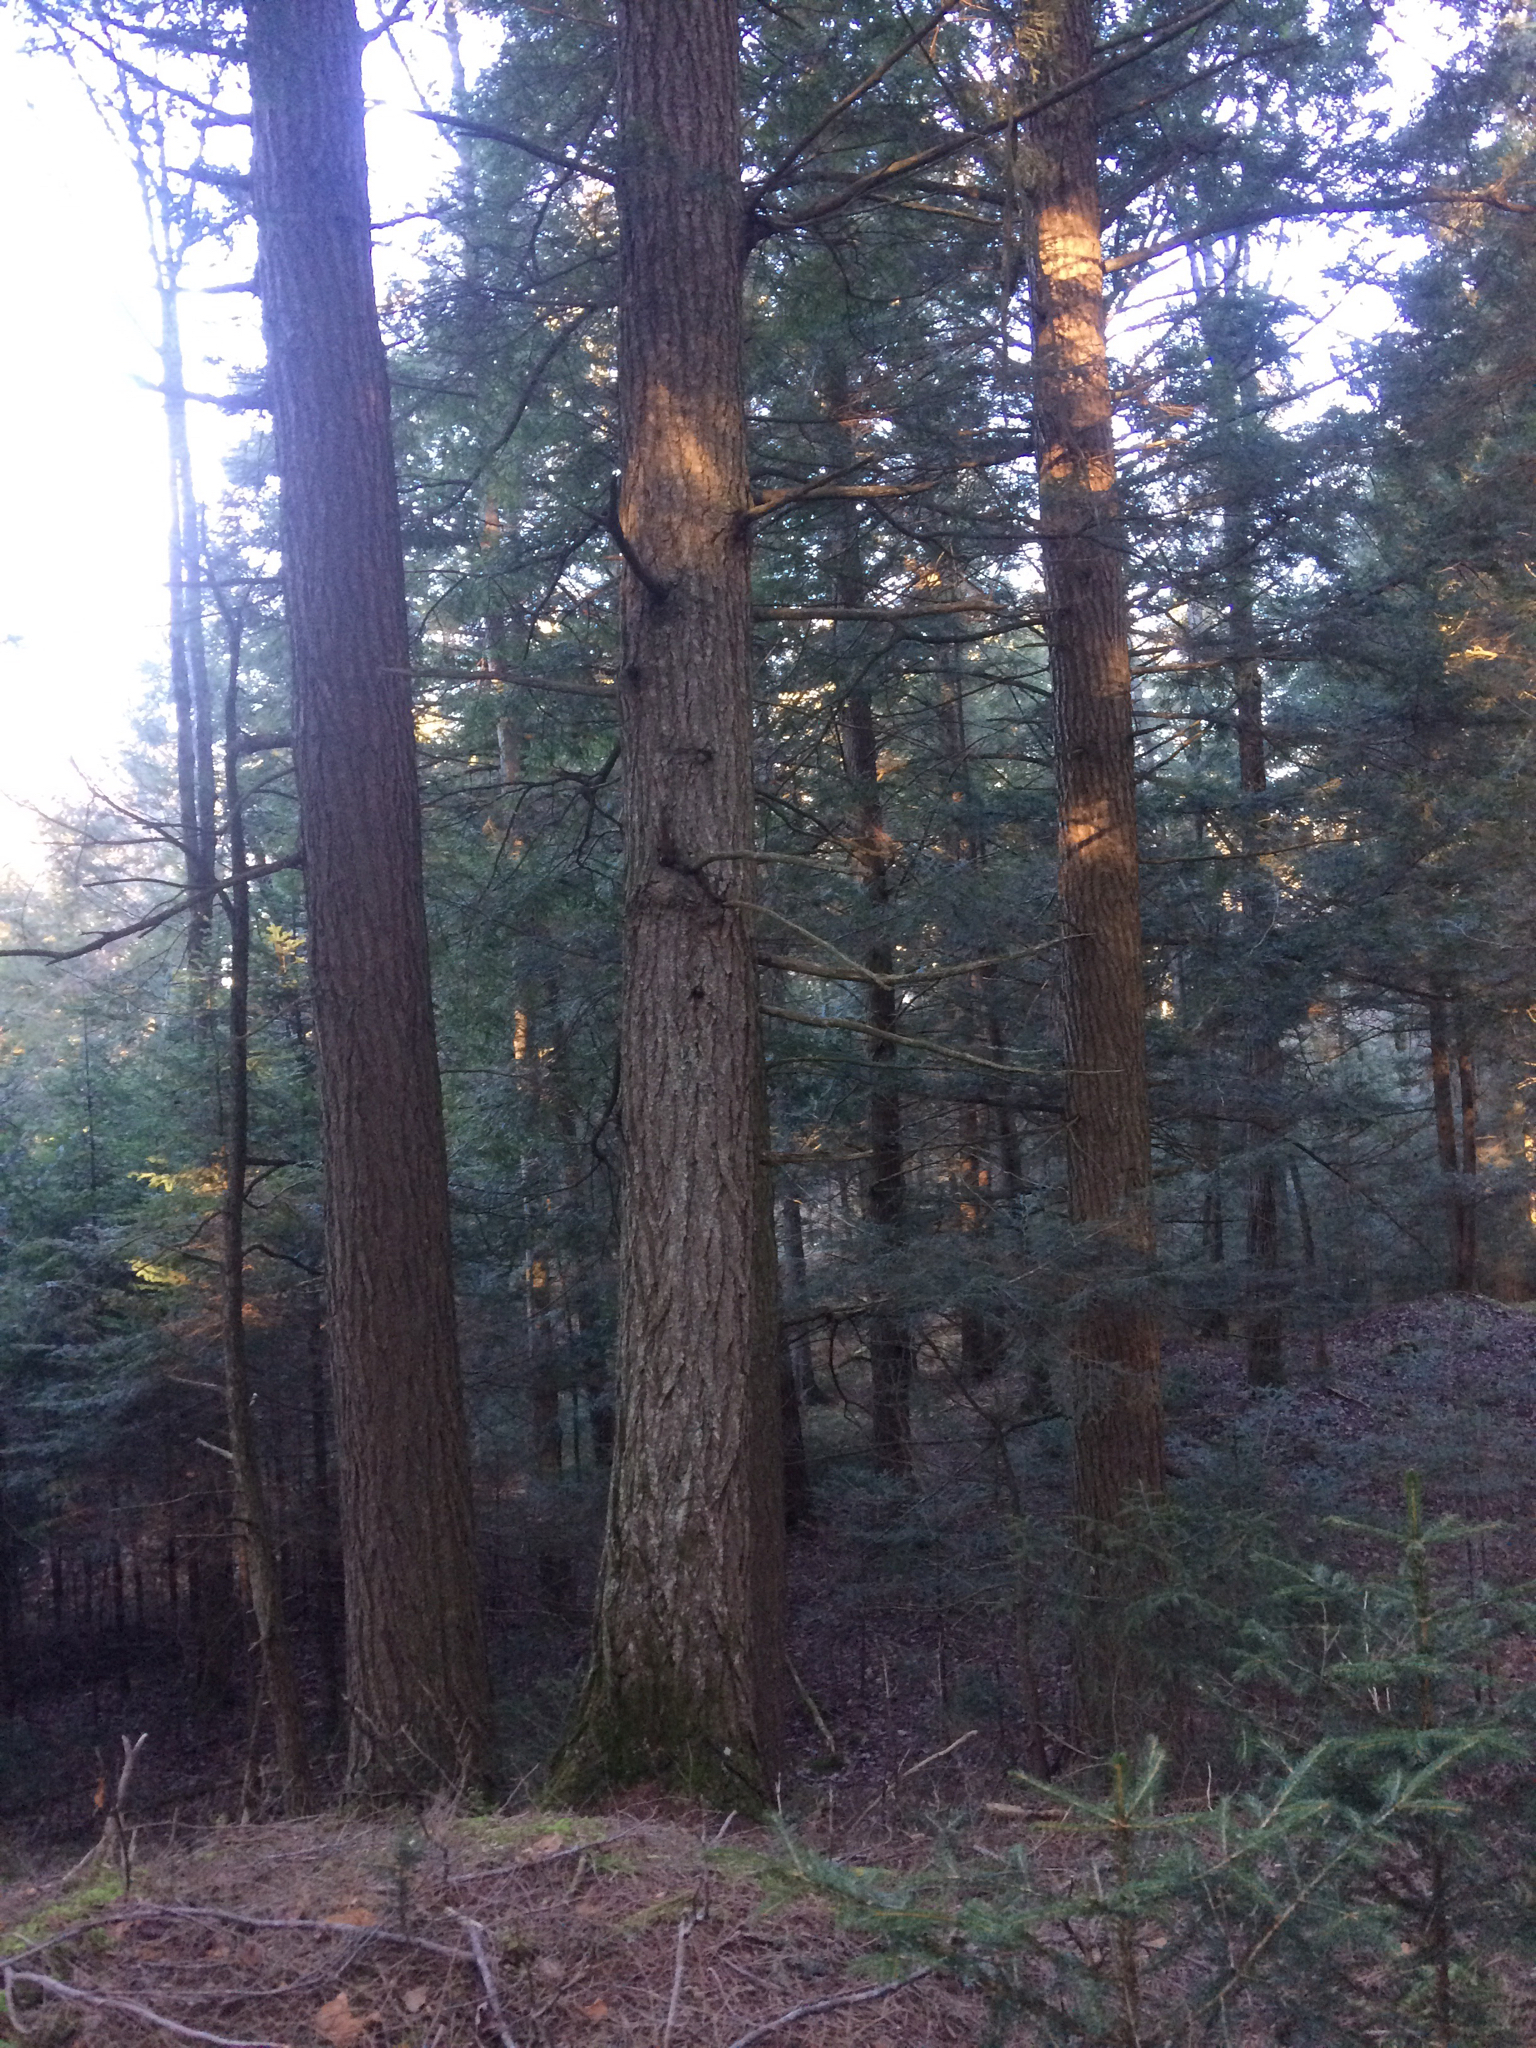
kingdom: Plantae
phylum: Tracheophyta
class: Pinopsida
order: Pinales
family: Pinaceae
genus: Tsuga
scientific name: Tsuga canadensis
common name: Eastern hemlock
